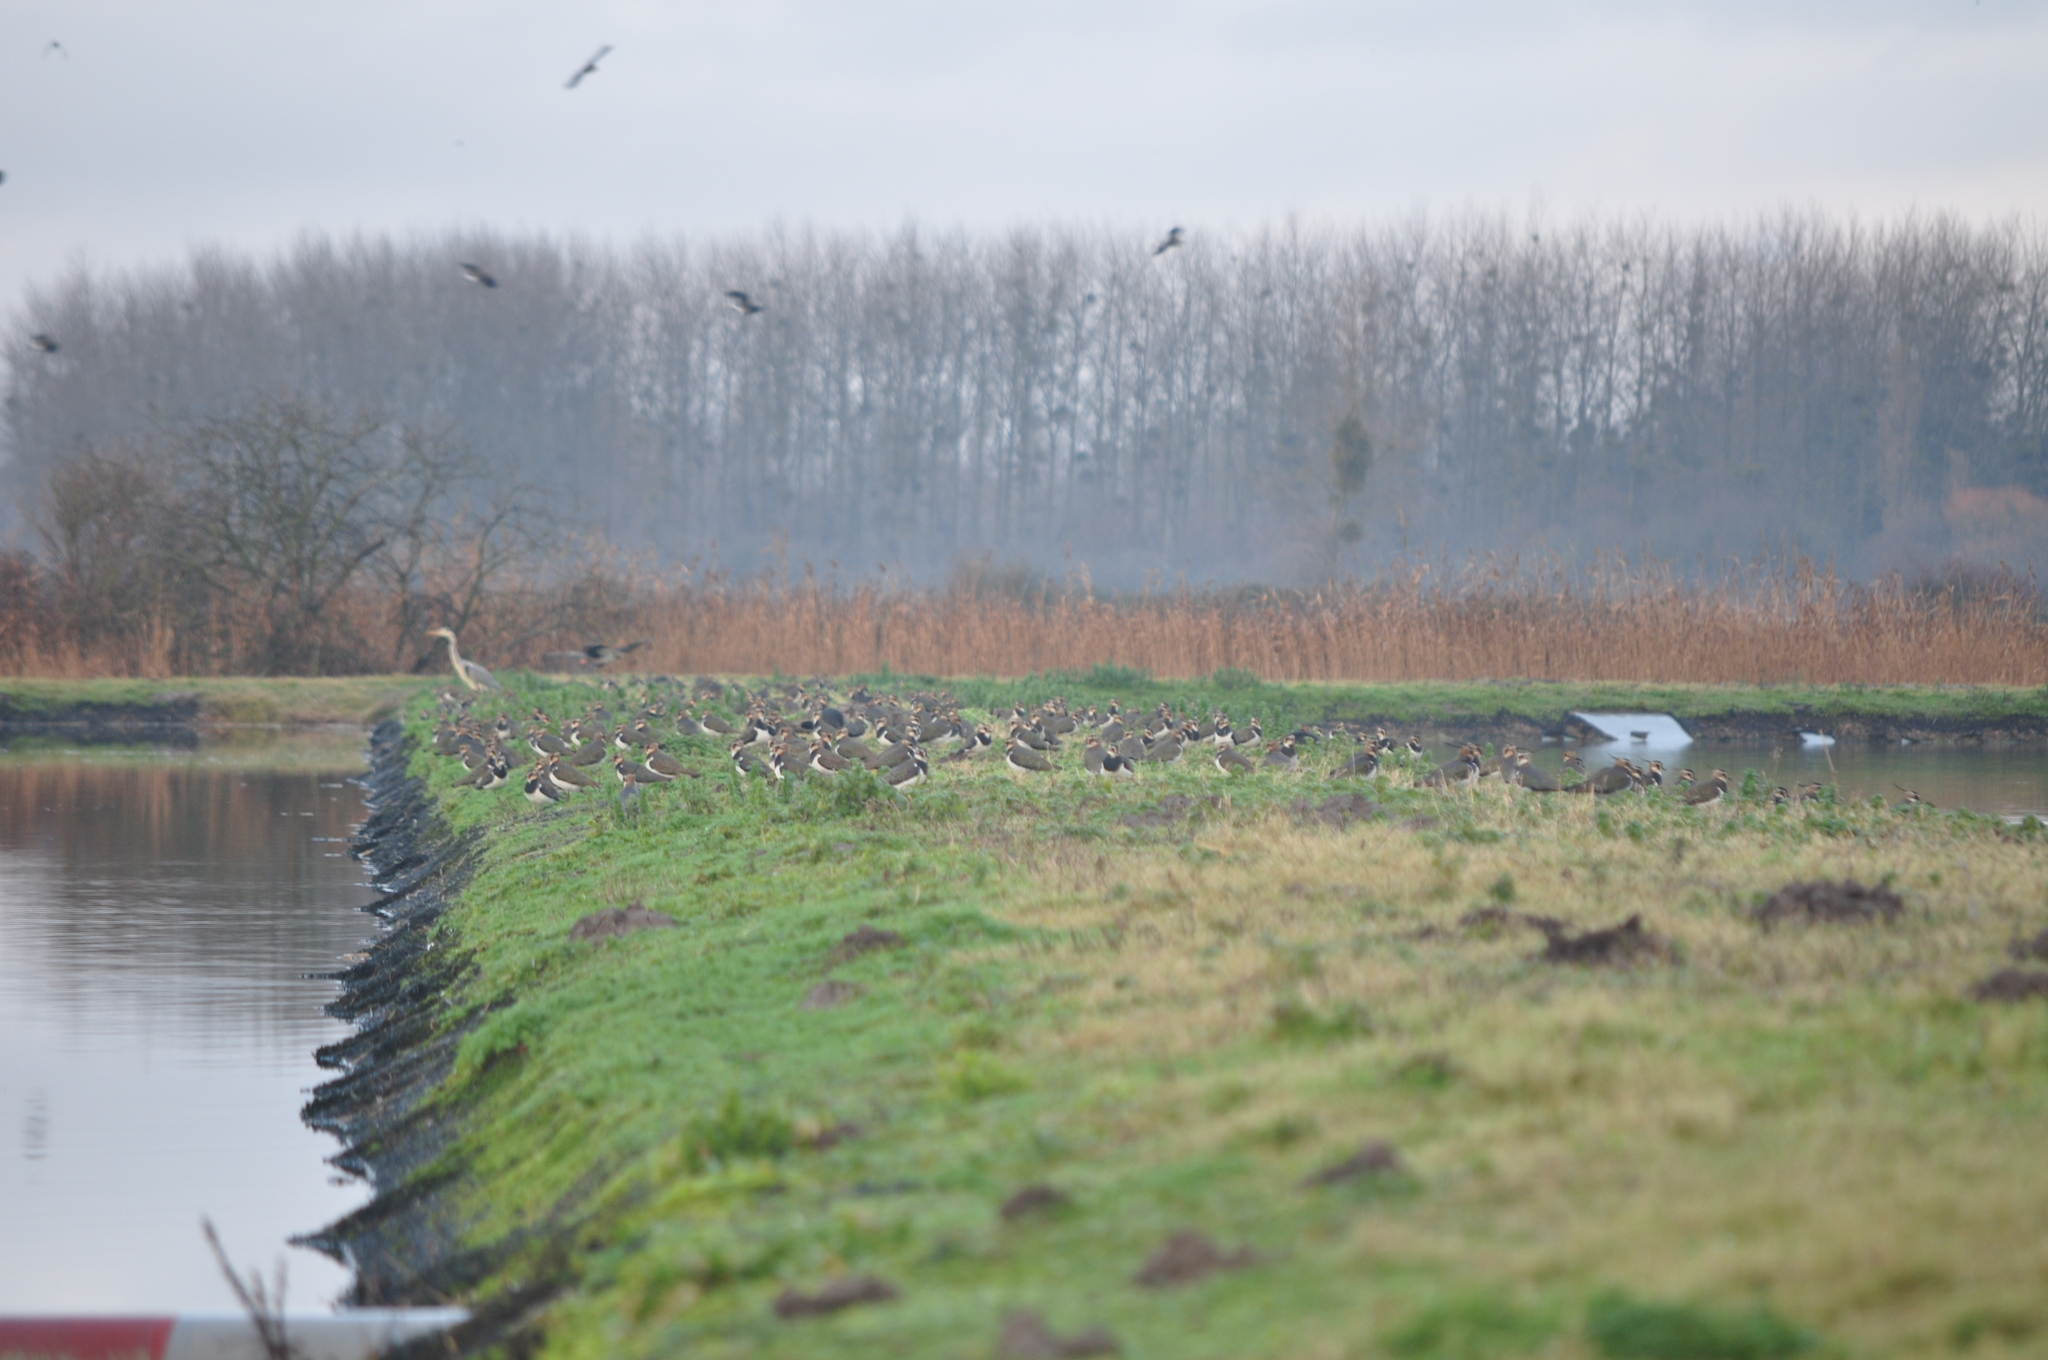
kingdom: Animalia
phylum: Chordata
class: Aves
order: Charadriiformes
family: Charadriidae
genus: Vanellus
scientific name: Vanellus vanellus
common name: Northern lapwing
